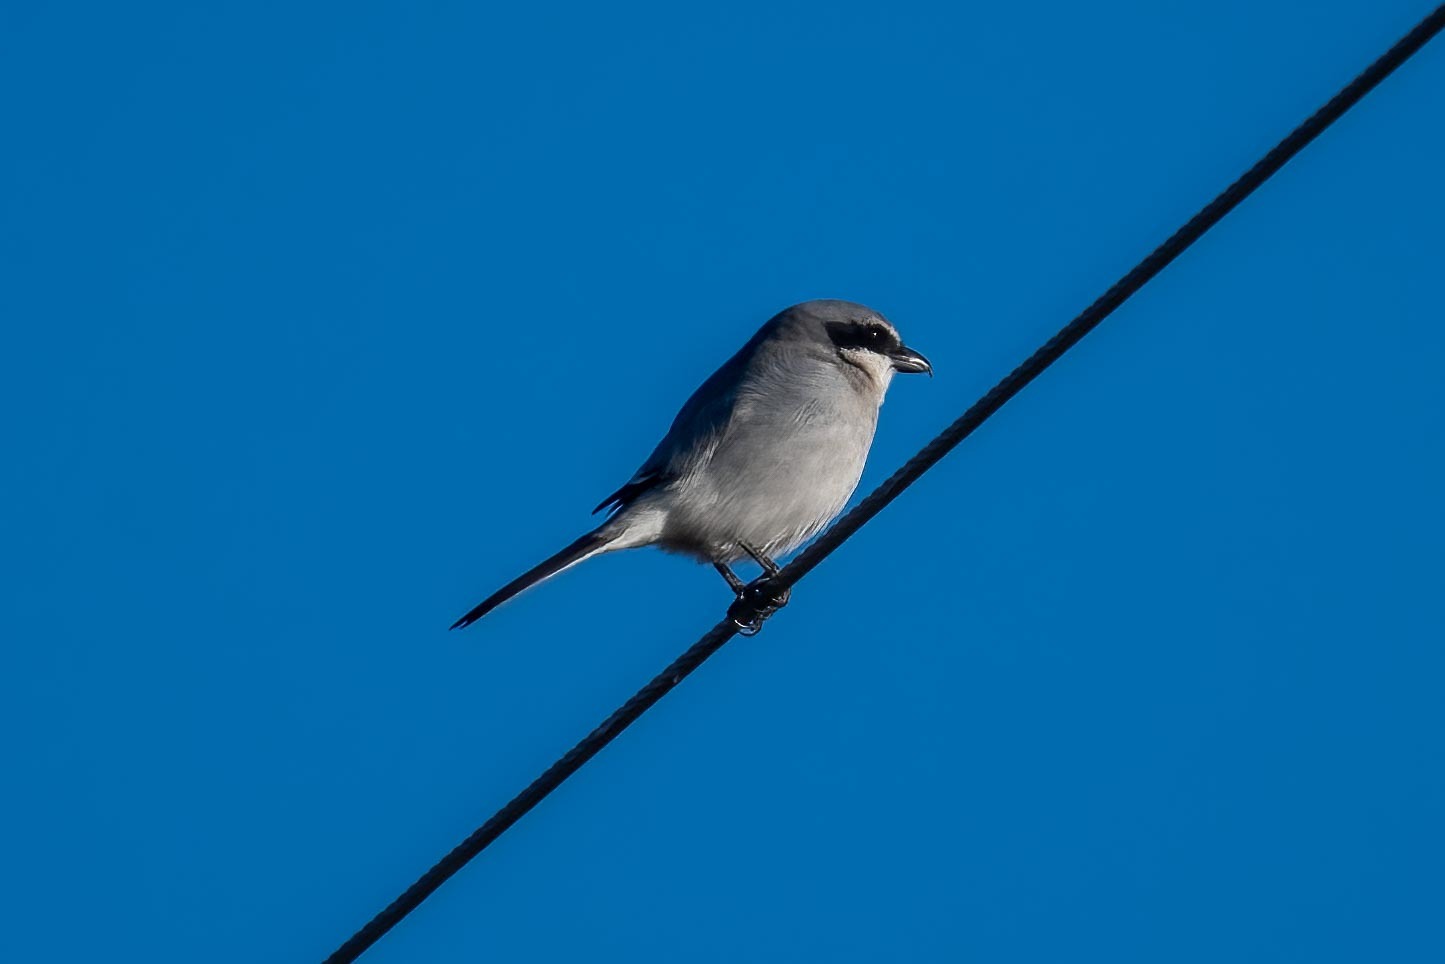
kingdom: Animalia
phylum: Chordata
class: Aves
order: Passeriformes
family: Laniidae
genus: Lanius
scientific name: Lanius ludovicianus
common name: Loggerhead shrike
